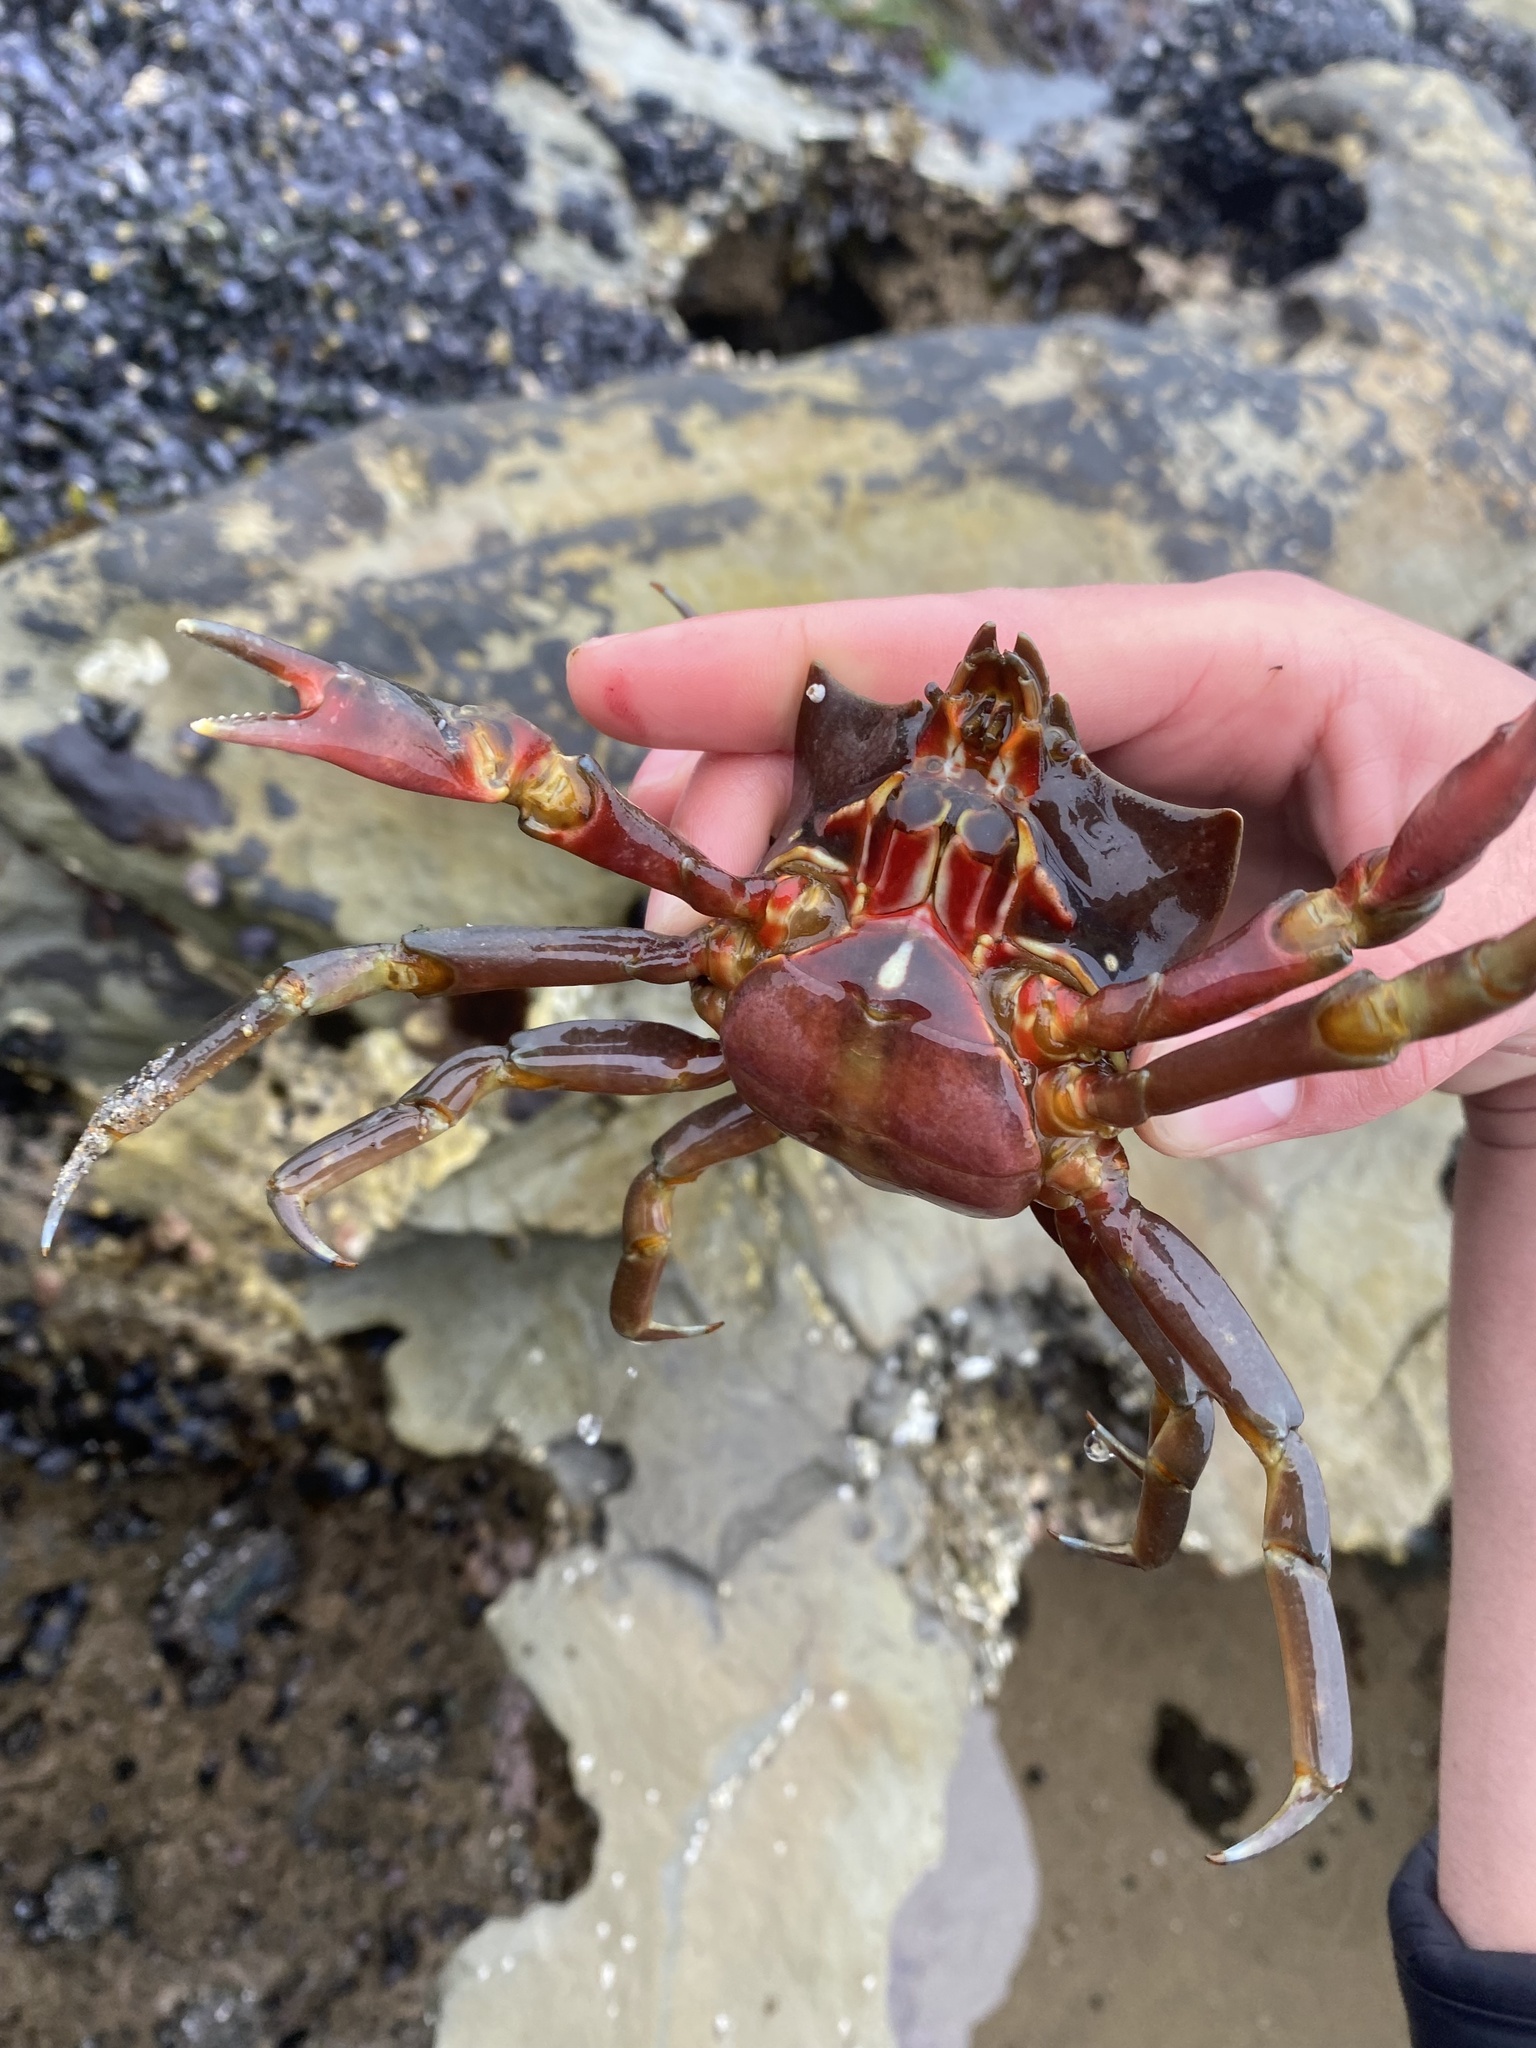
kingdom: Animalia
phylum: Arthropoda
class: Malacostraca
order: Decapoda
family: Epialtidae
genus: Pugettia
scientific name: Pugettia producta
